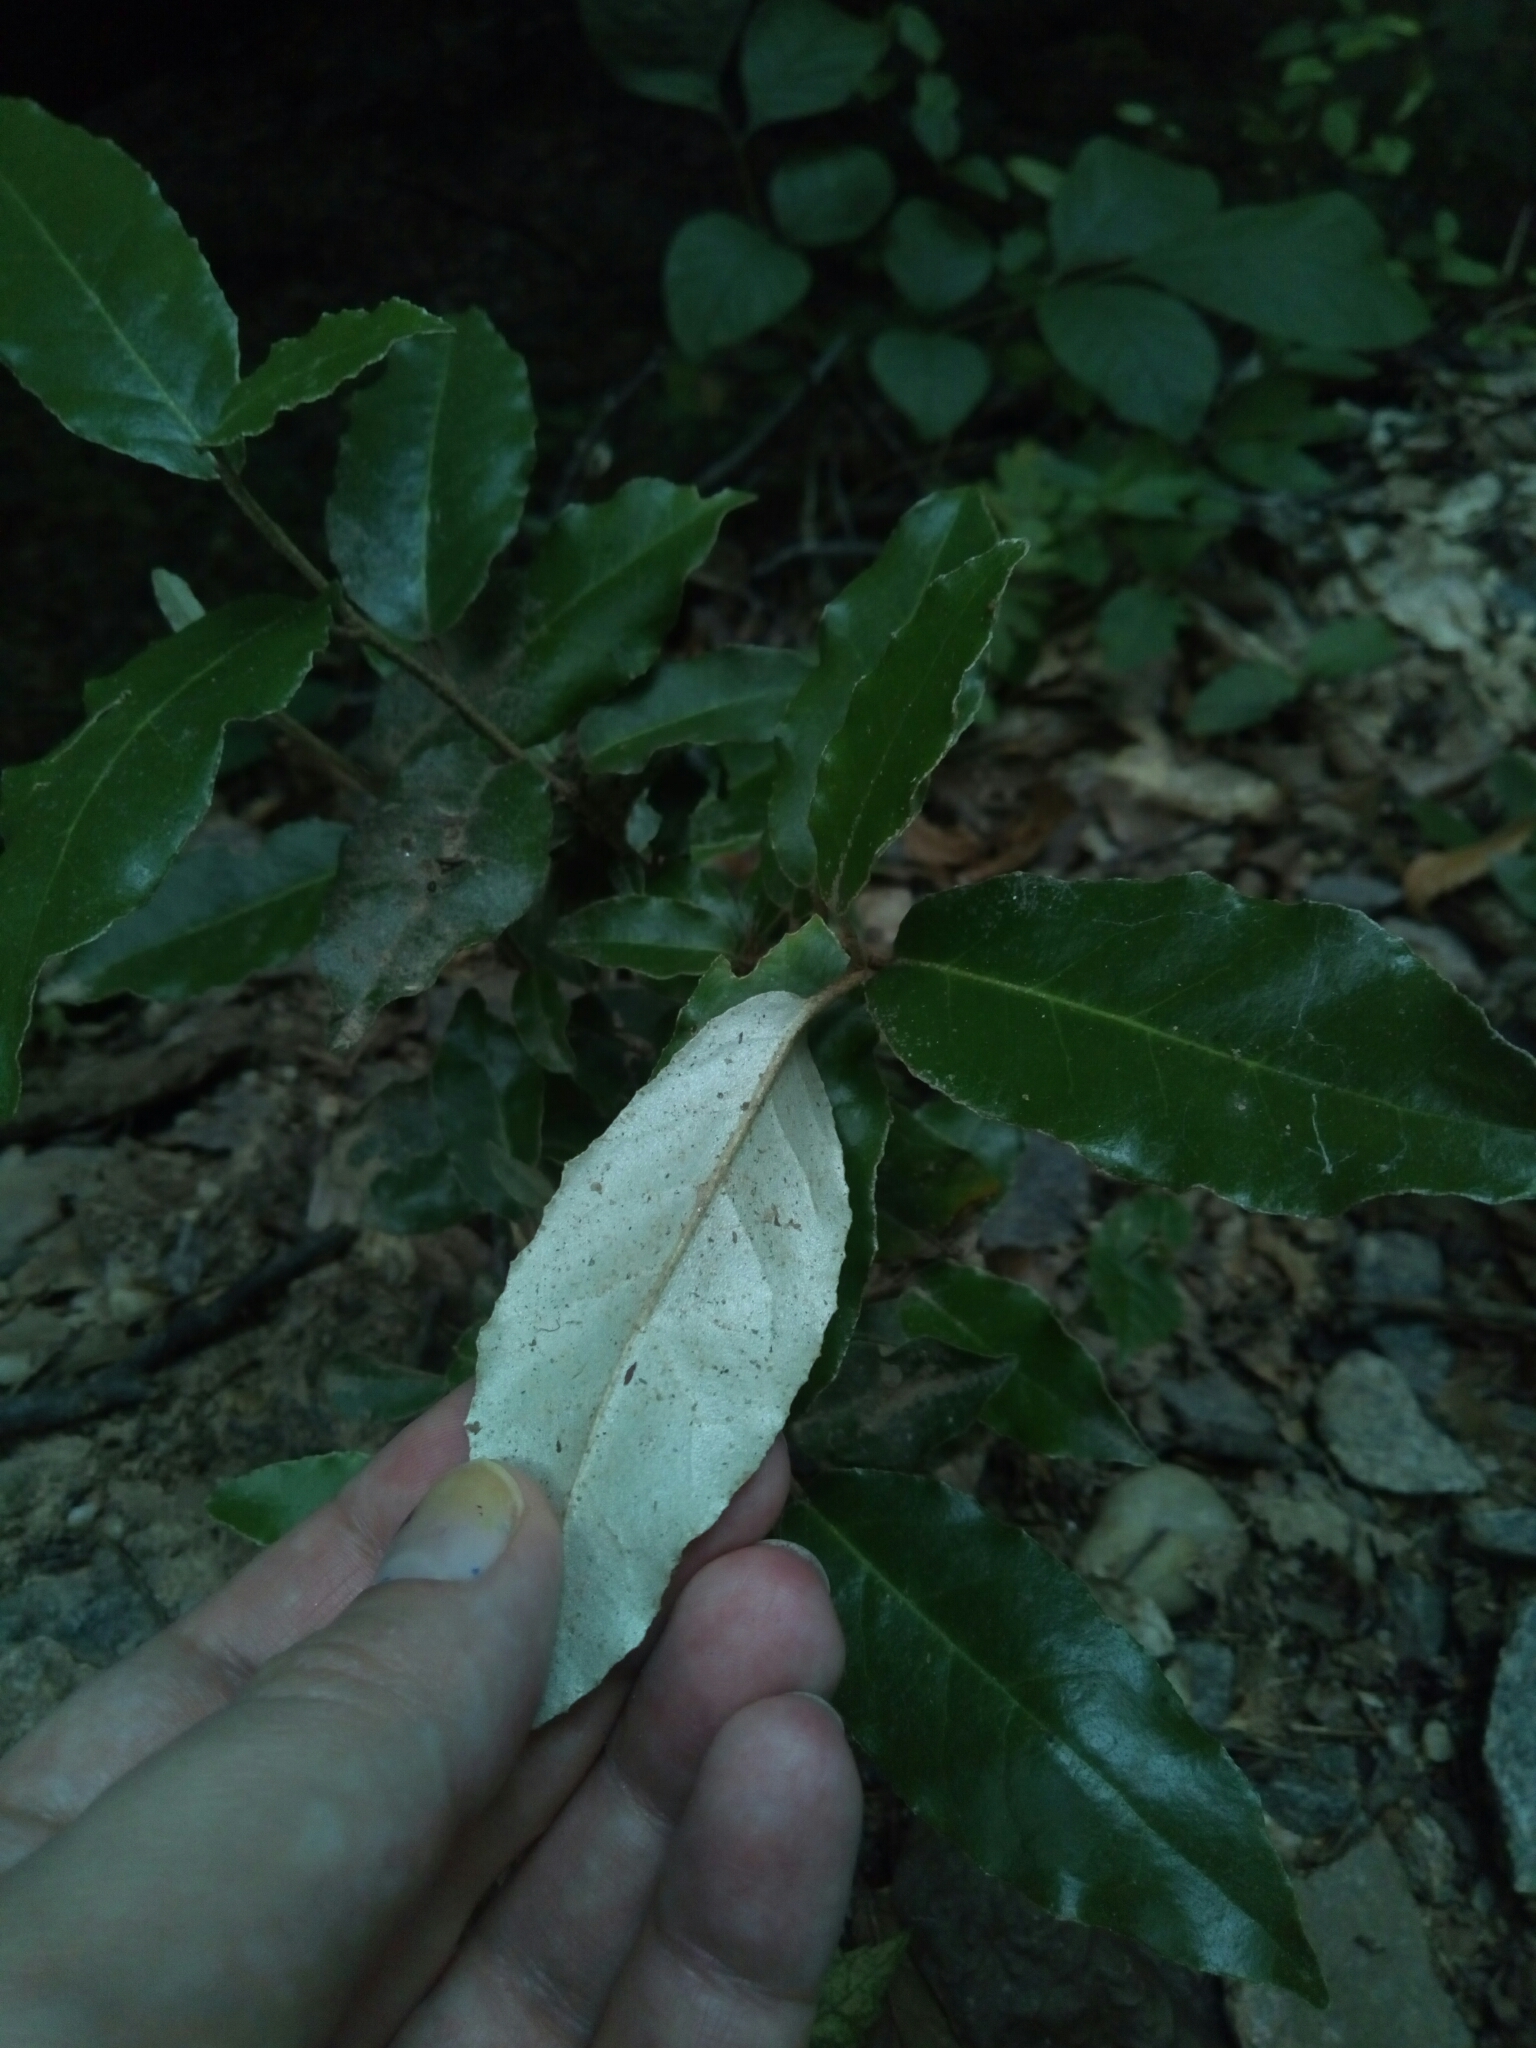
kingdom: Plantae
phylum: Tracheophyta
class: Magnoliopsida
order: Rosales
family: Elaeagnaceae
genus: Elaeagnus
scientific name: Elaeagnus umbellata
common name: Autumn olive
